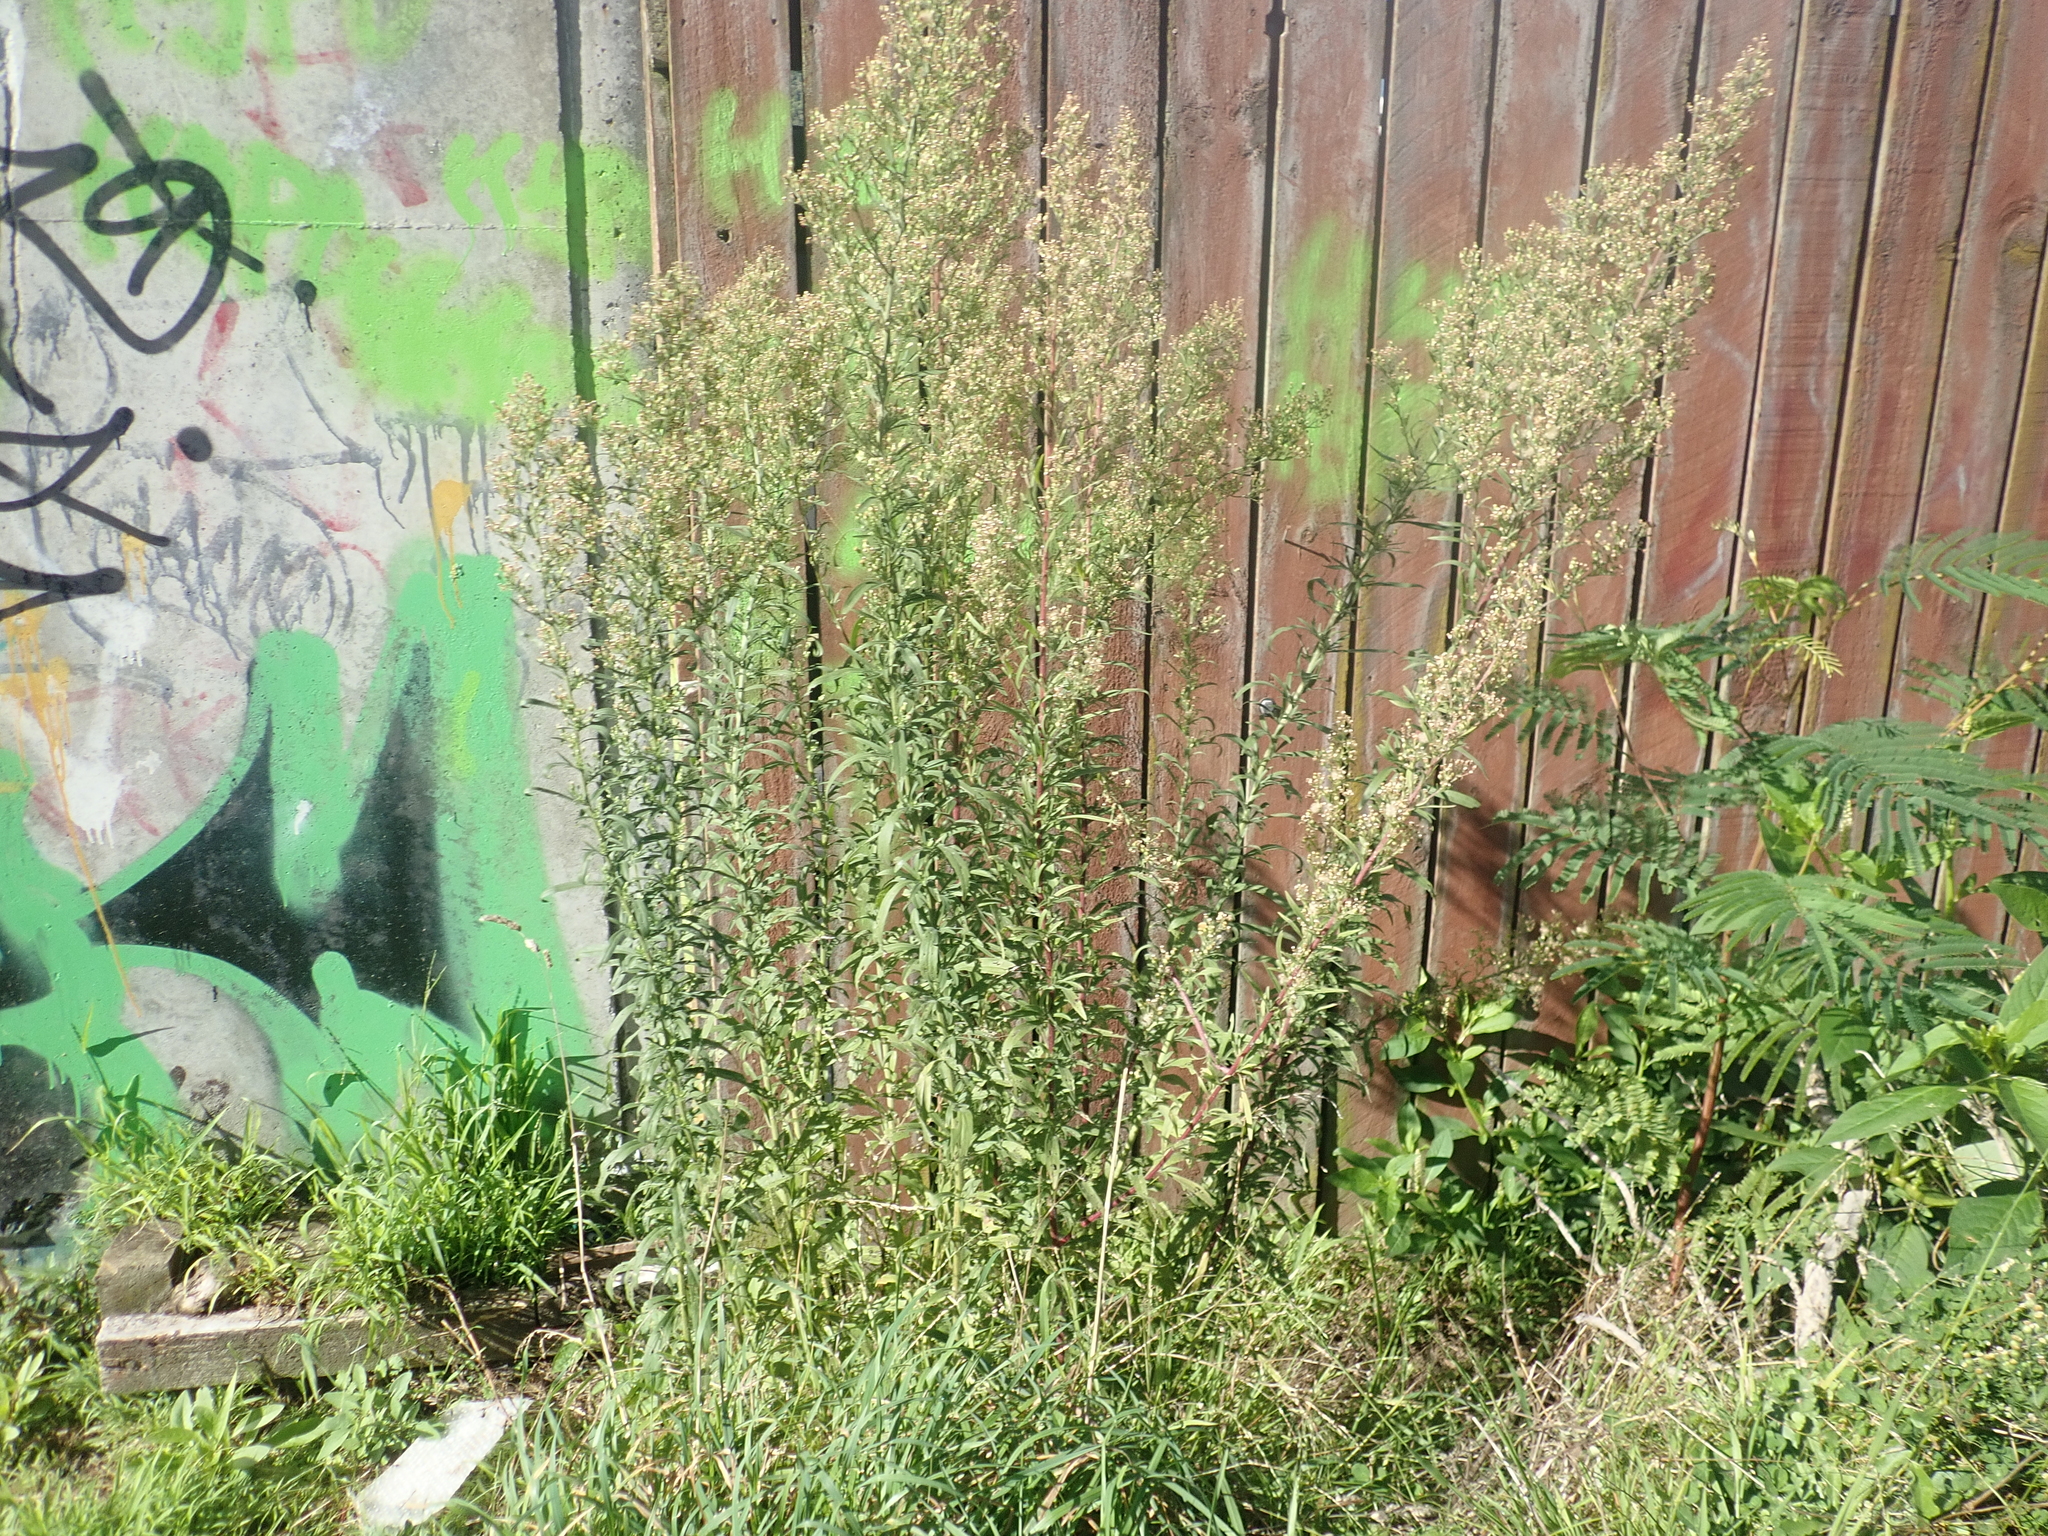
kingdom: Plantae
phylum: Tracheophyta
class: Magnoliopsida
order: Asterales
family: Asteraceae
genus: Erigeron
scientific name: Erigeron sumatrensis
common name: Daisy
